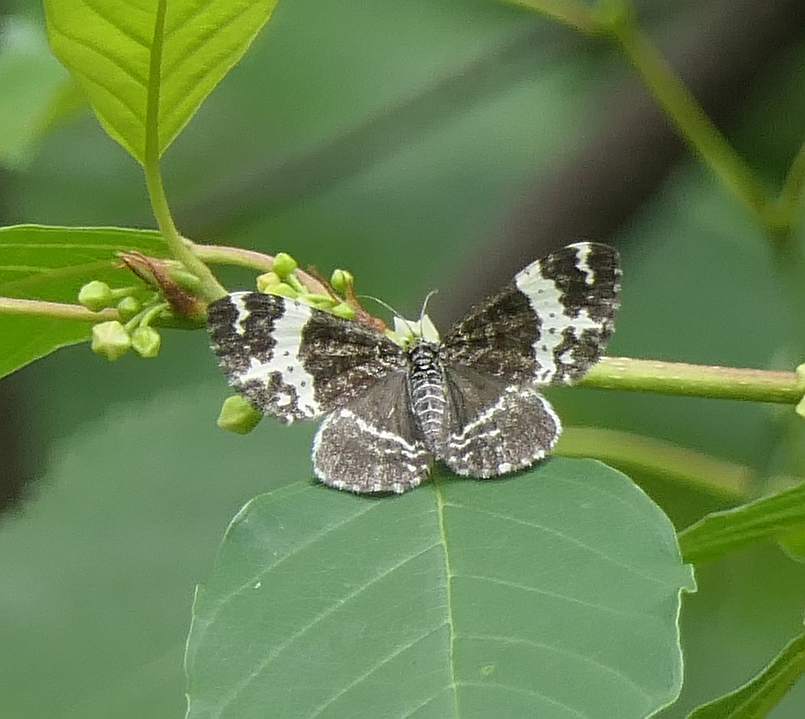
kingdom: Animalia
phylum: Arthropoda
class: Insecta
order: Lepidoptera
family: Geometridae
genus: Rheumaptera
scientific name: Rheumaptera
